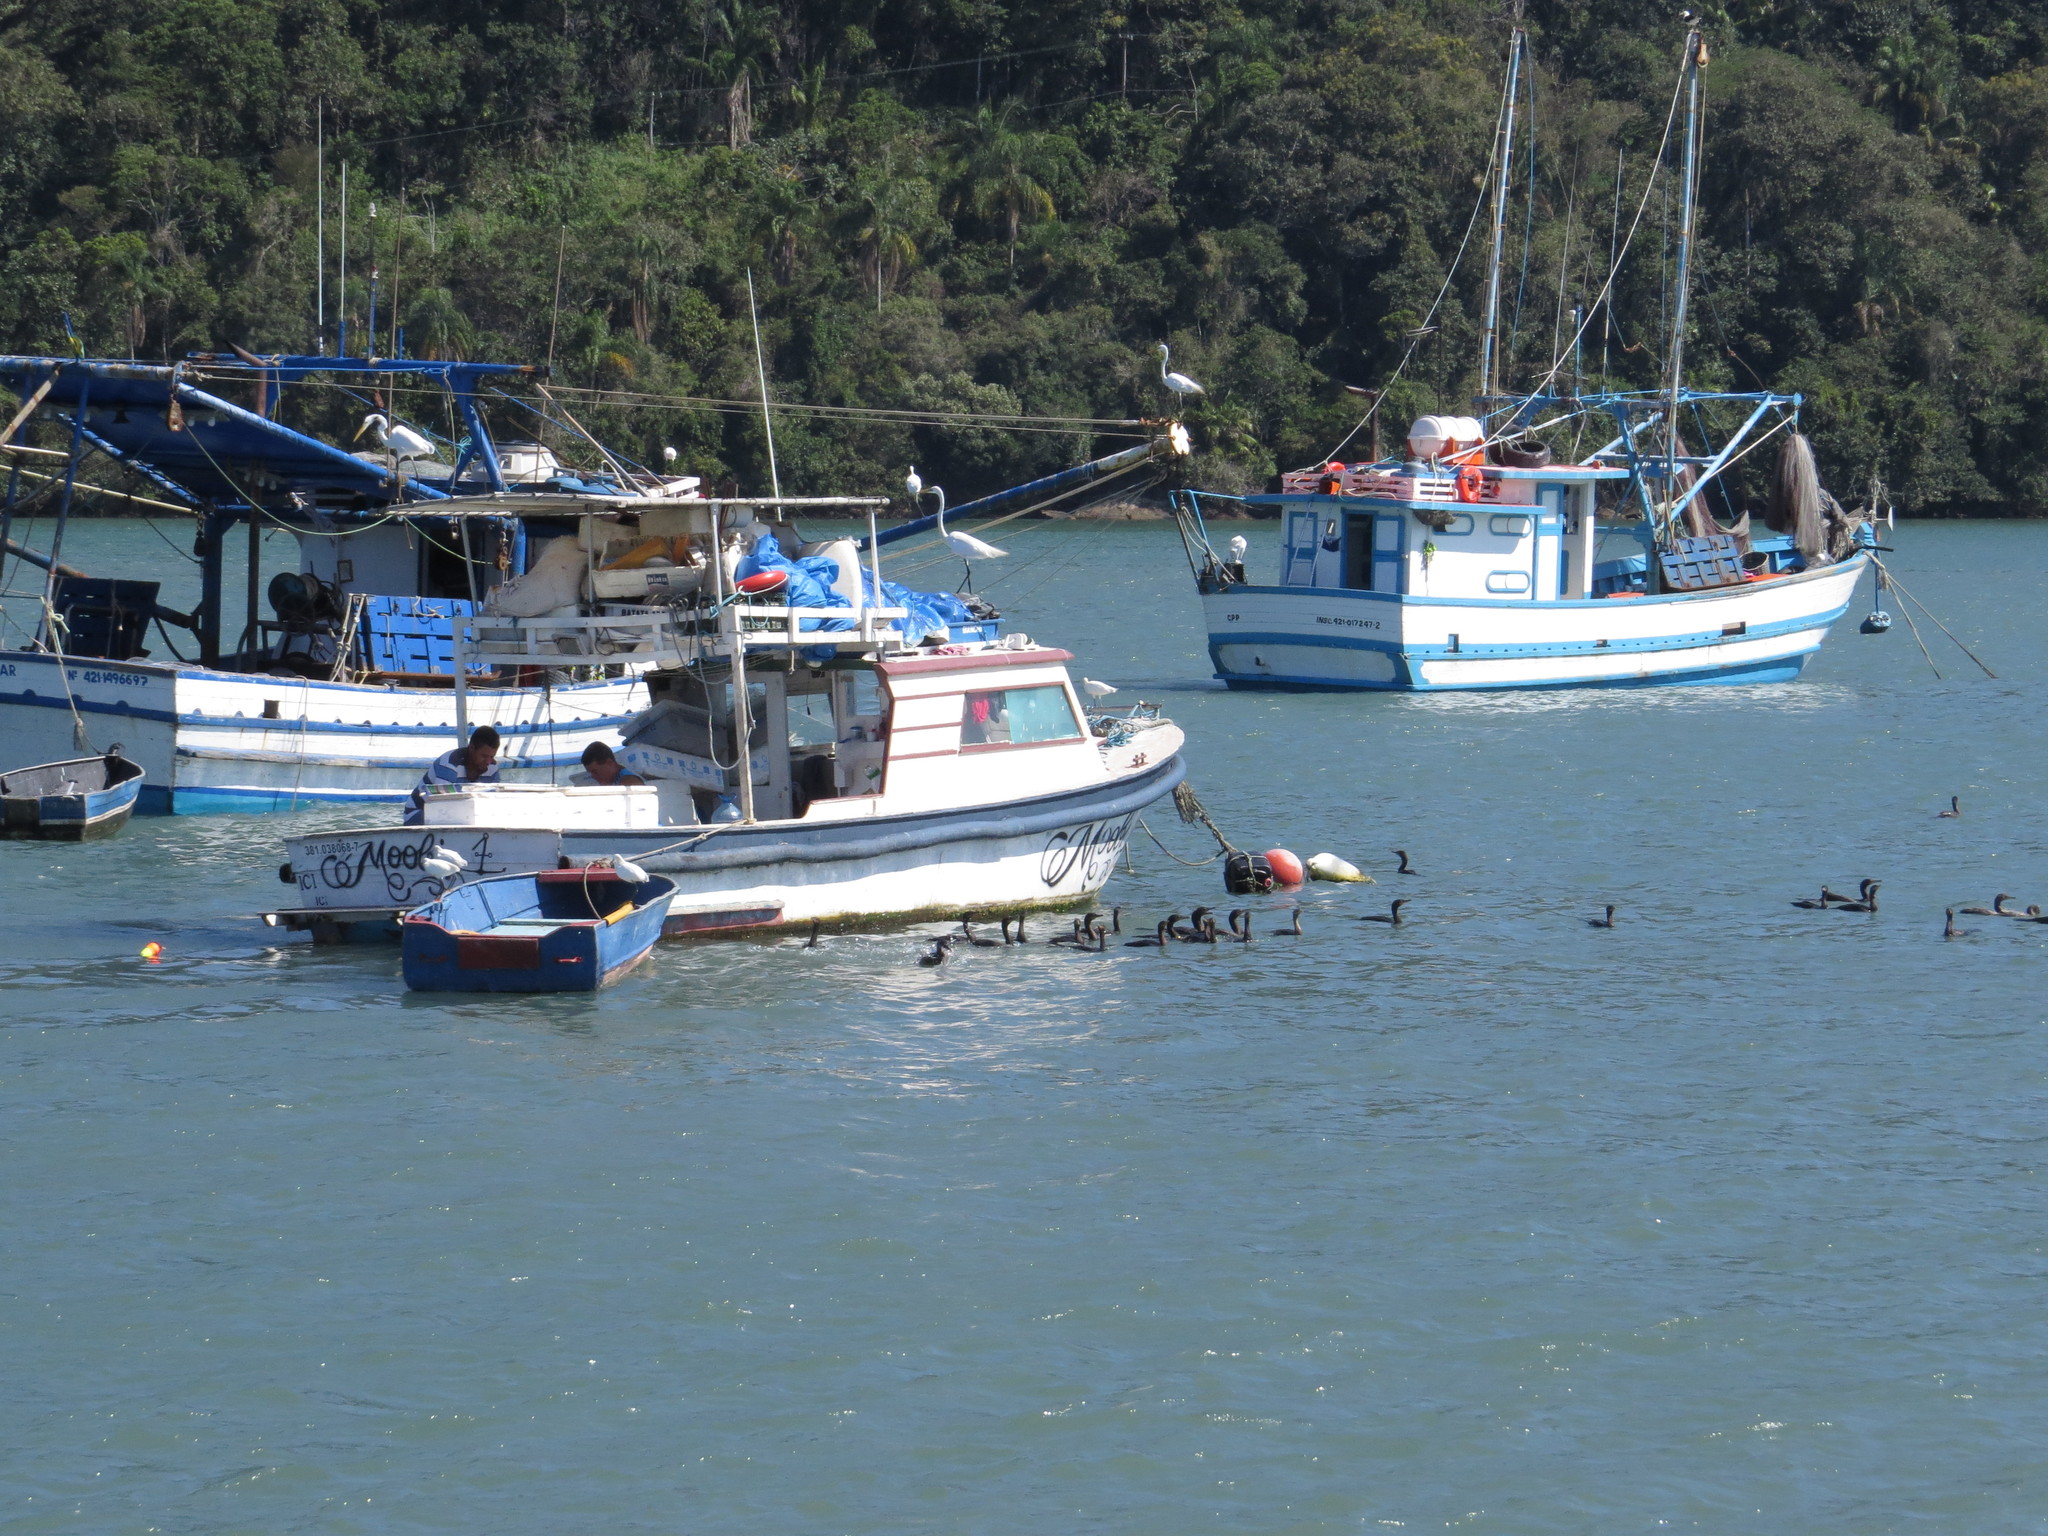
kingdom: Animalia
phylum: Chordata
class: Aves
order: Suliformes
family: Phalacrocoracidae
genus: Phalacrocorax
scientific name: Phalacrocorax brasilianus
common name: Neotropic cormorant
